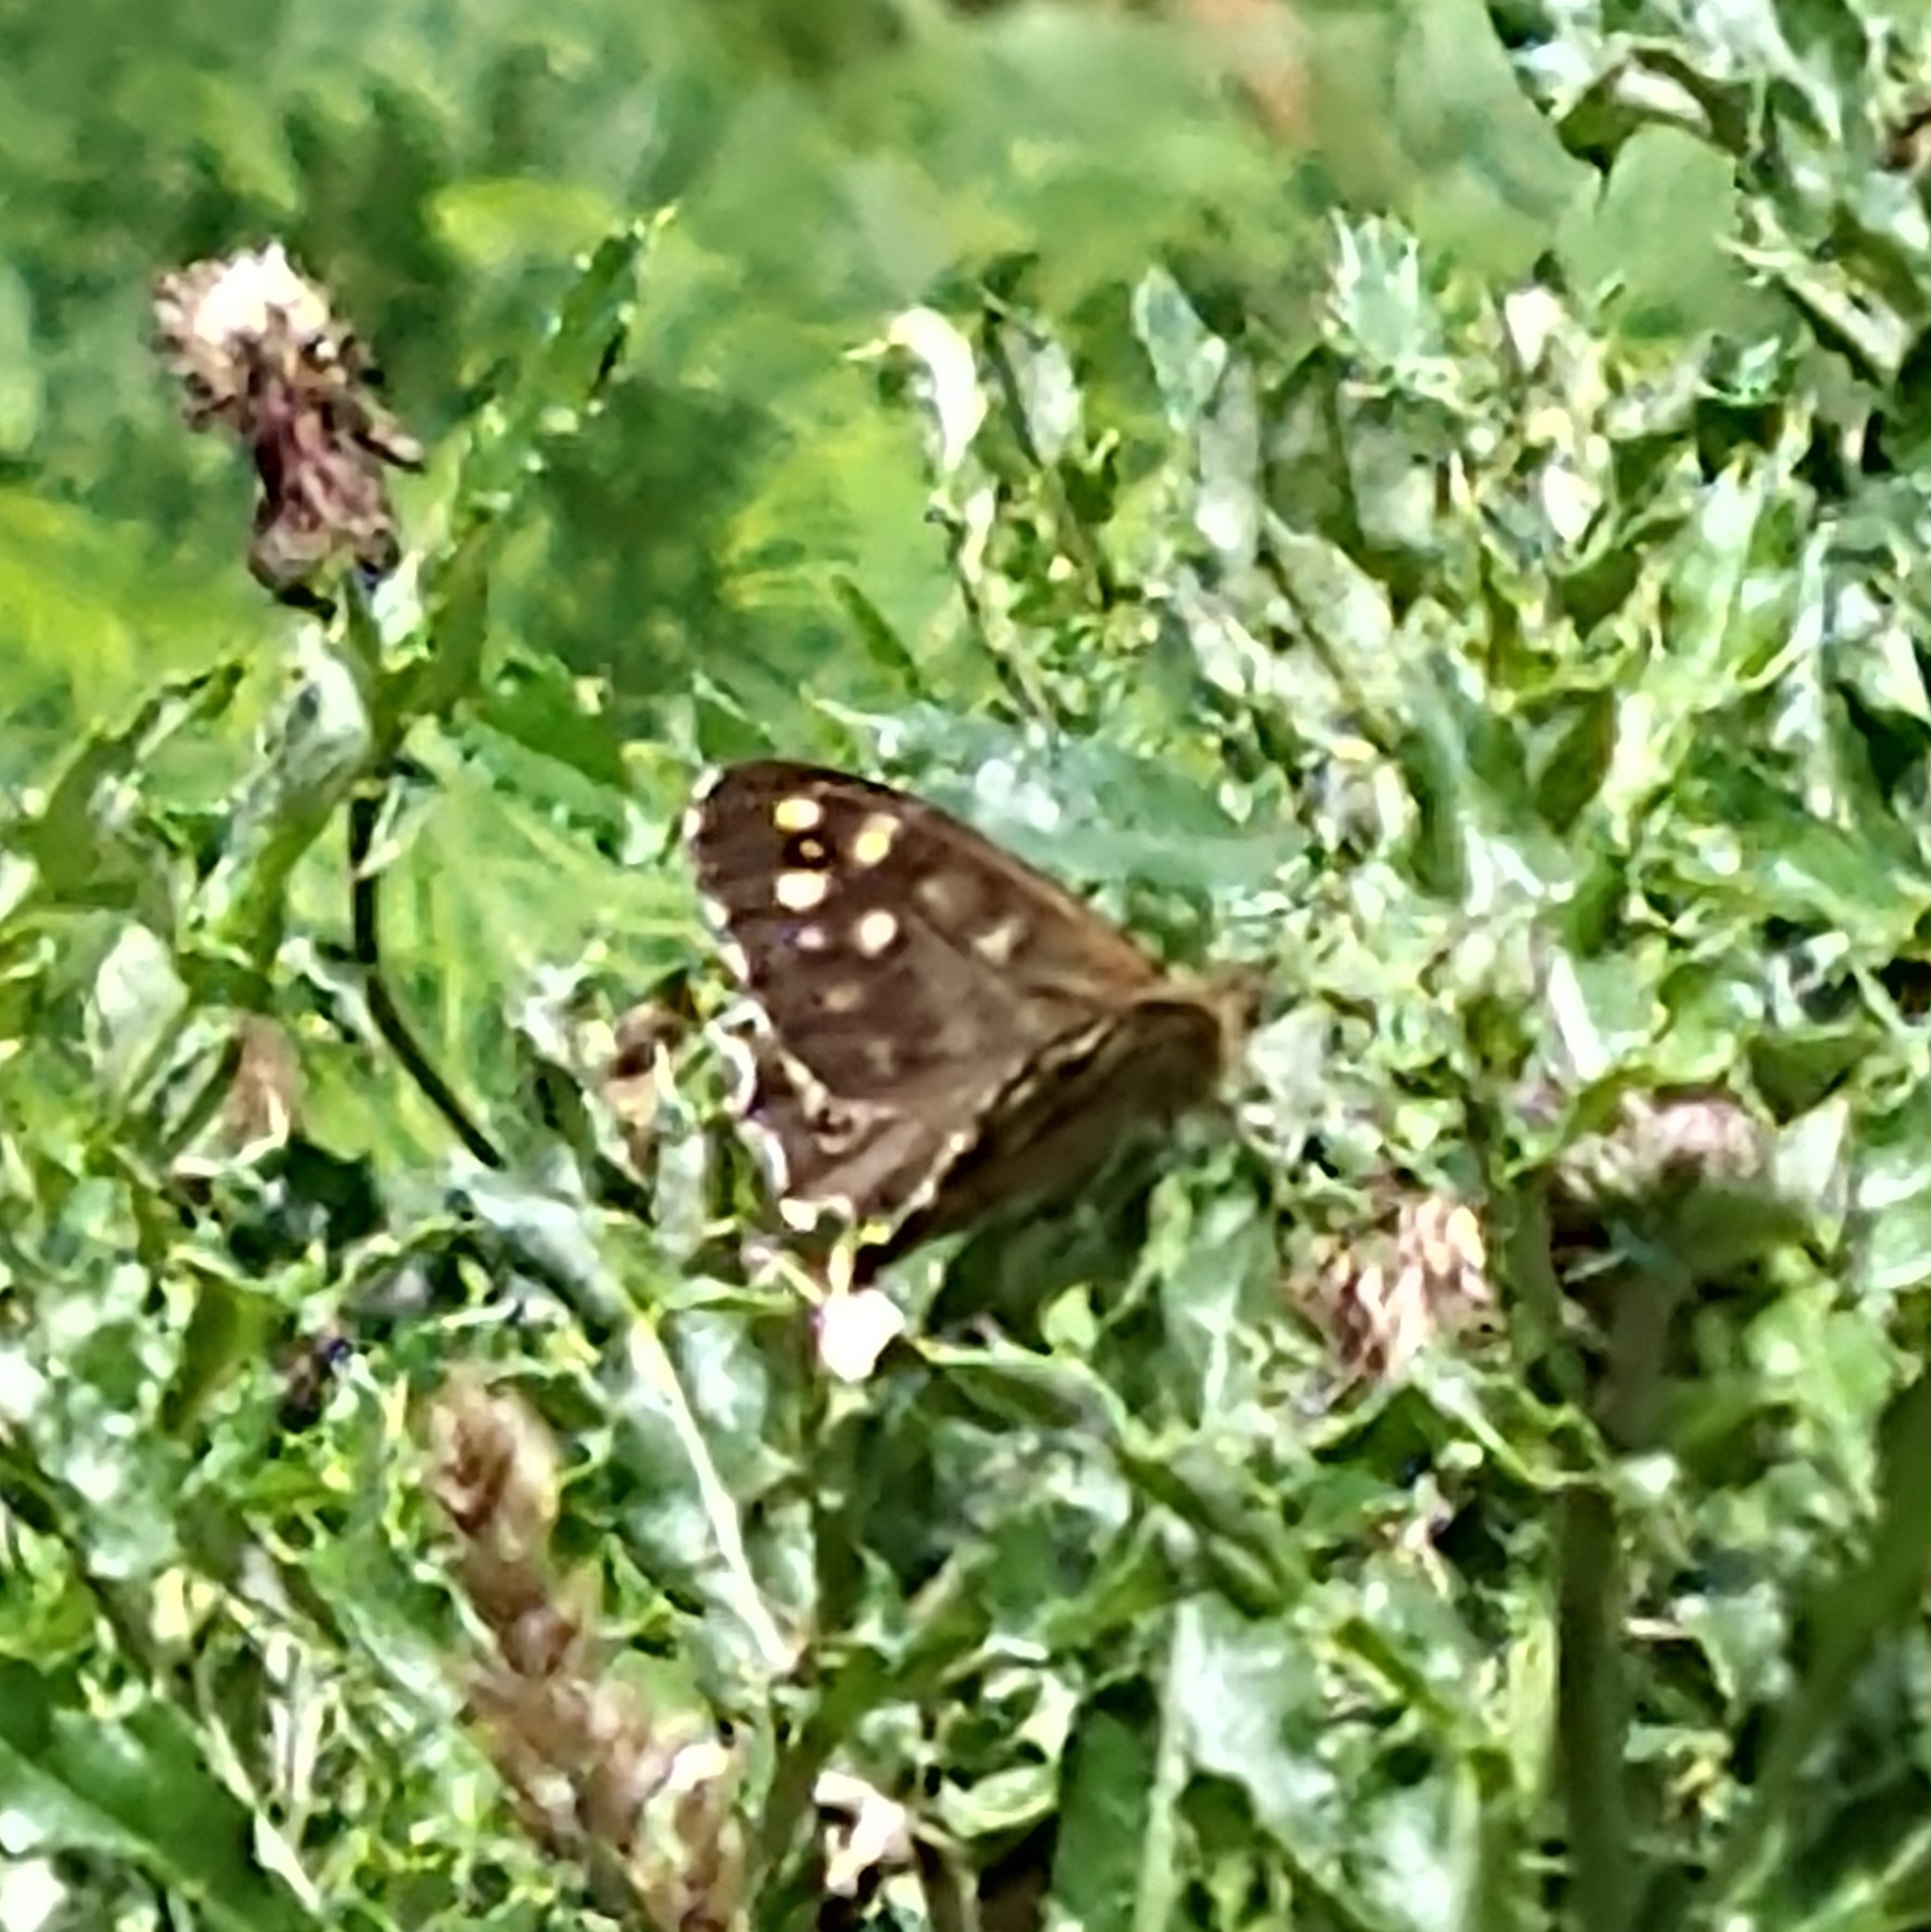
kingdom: Animalia
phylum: Arthropoda
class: Insecta
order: Lepidoptera
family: Nymphalidae
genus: Pararge
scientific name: Pararge aegeria
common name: Speckled wood
